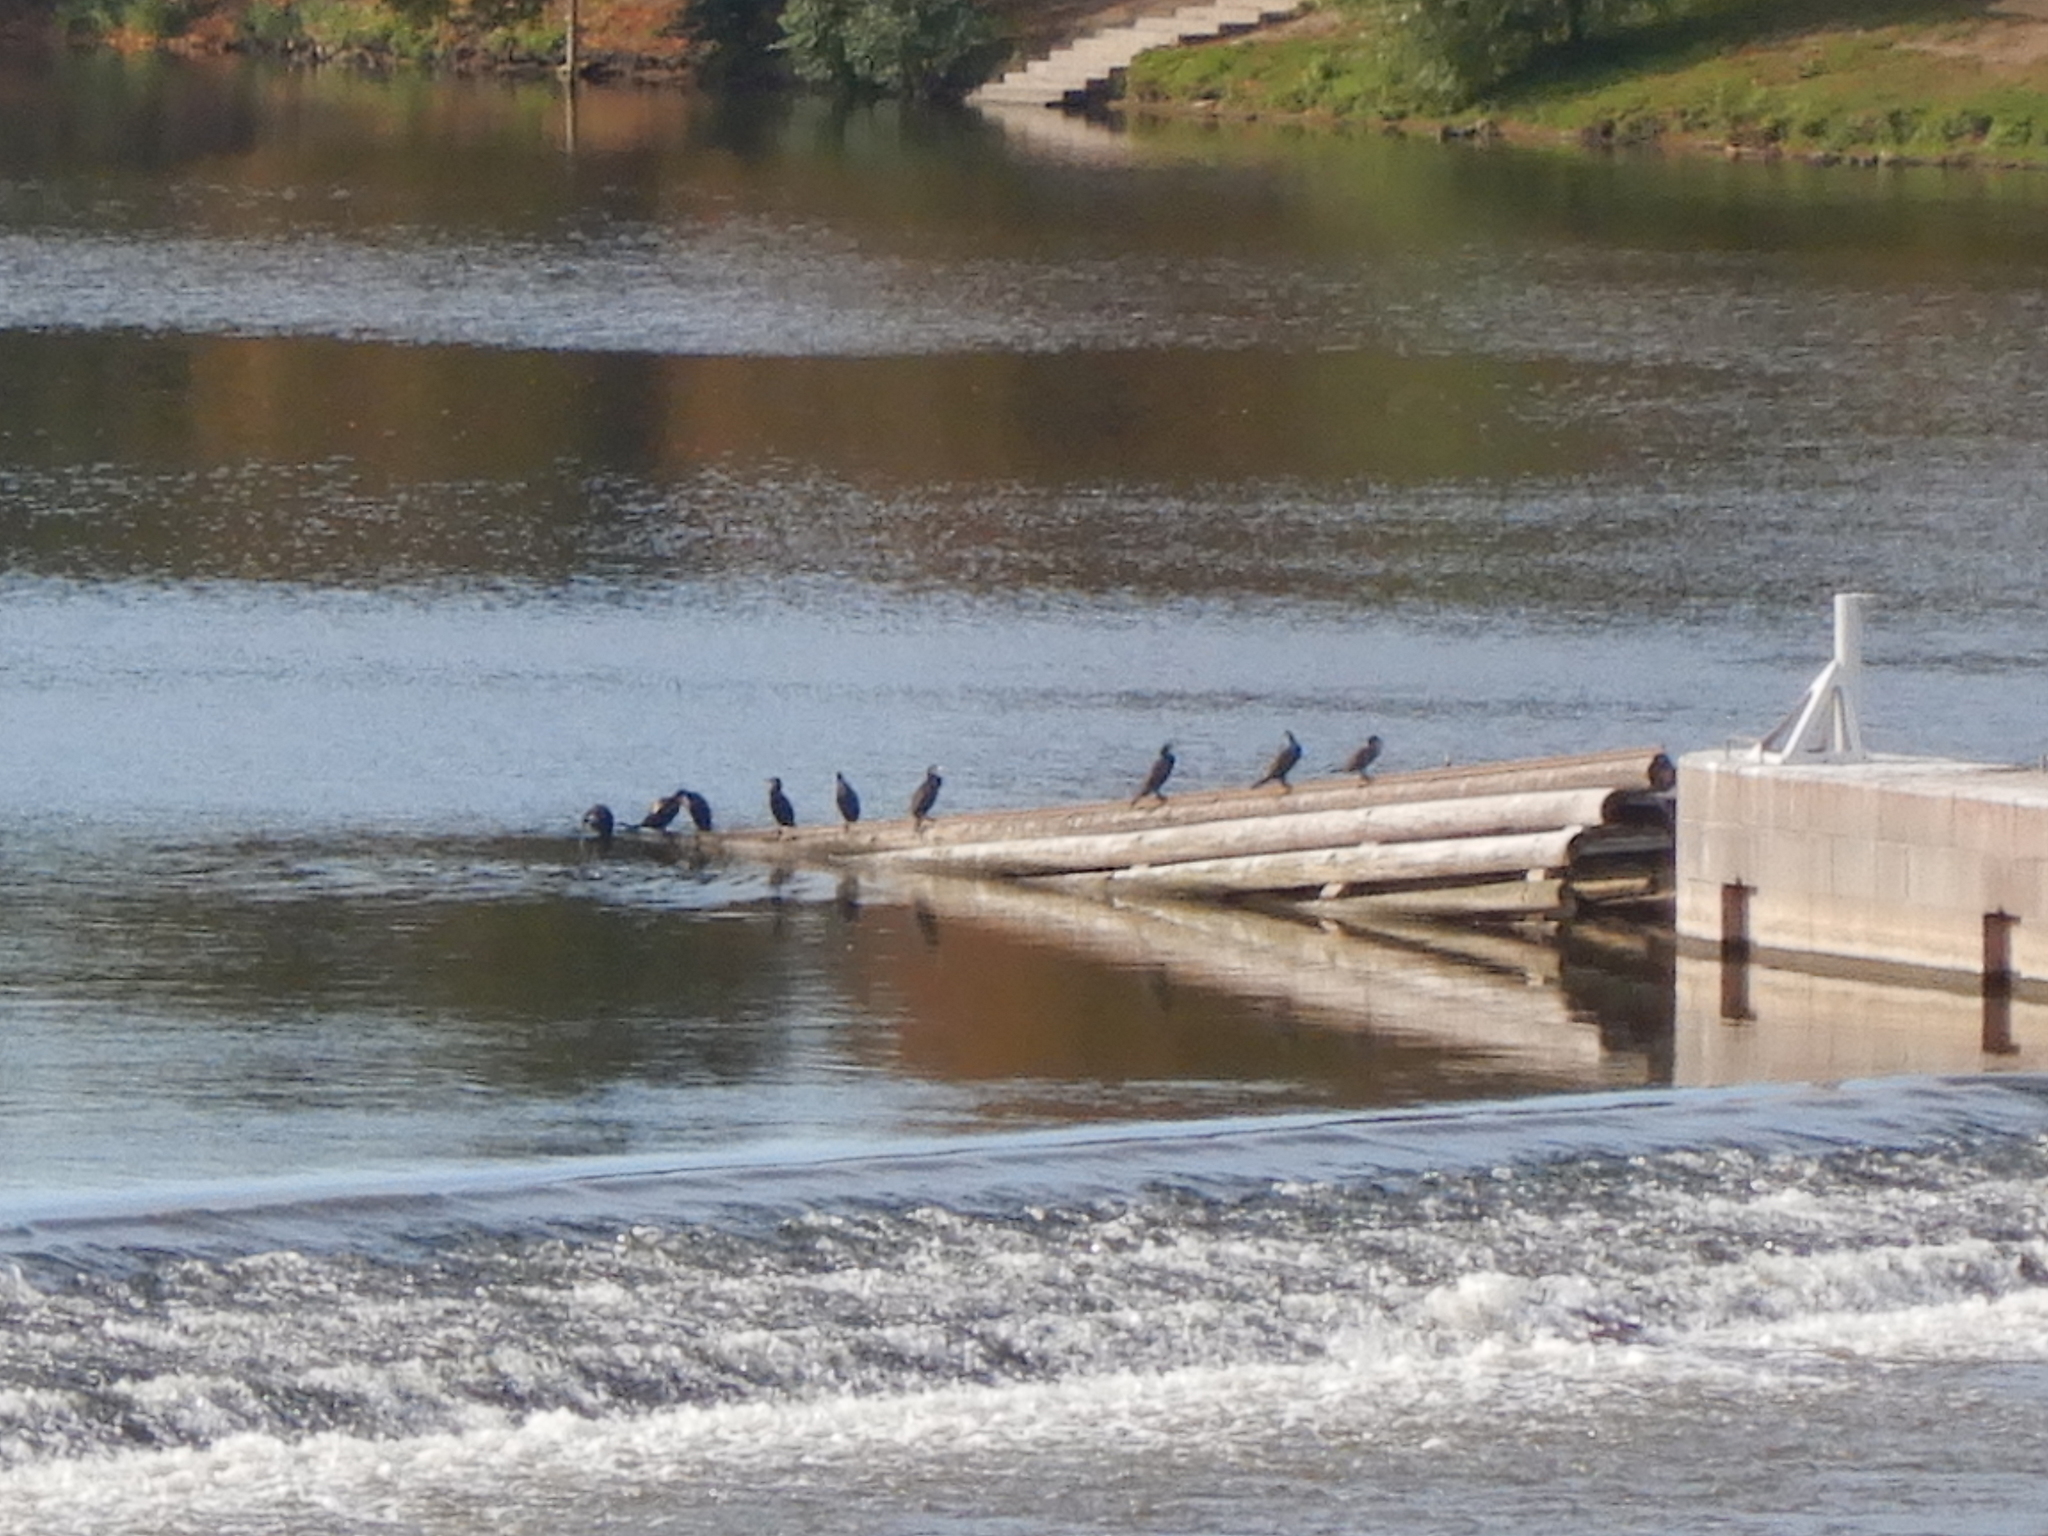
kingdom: Animalia
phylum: Chordata
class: Aves
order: Suliformes
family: Phalacrocoracidae
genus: Phalacrocorax
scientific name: Phalacrocorax carbo
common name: Great cormorant
